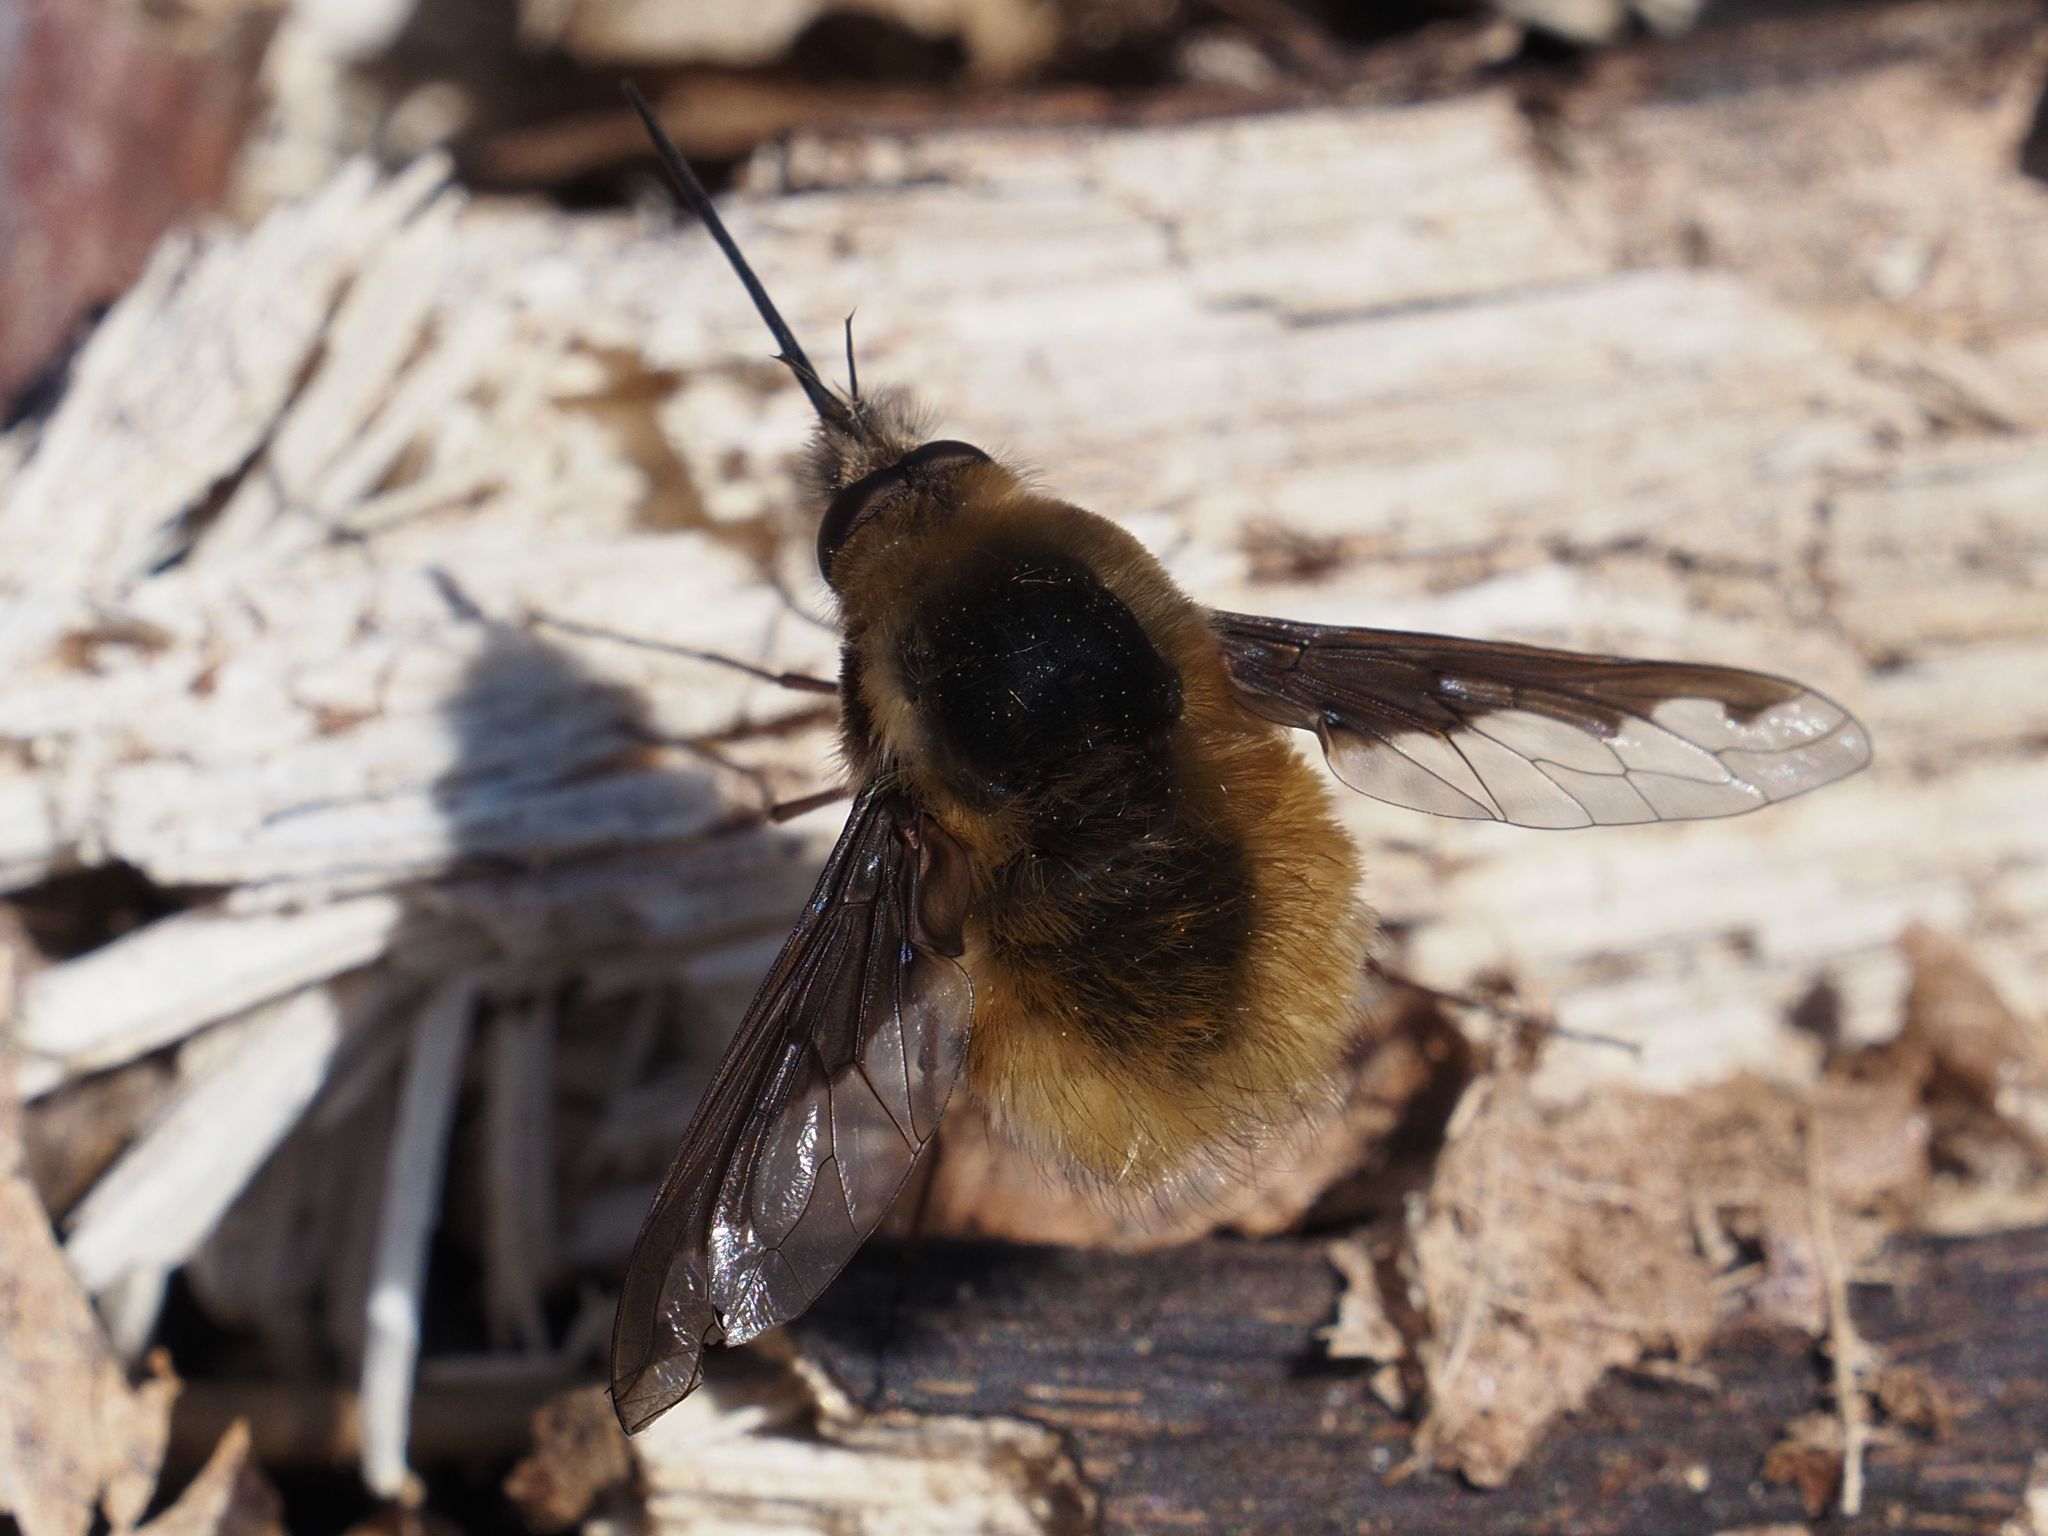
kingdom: Animalia
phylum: Arthropoda
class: Insecta
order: Diptera
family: Bombyliidae
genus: Bombylius
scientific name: Bombylius major
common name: Bee fly
